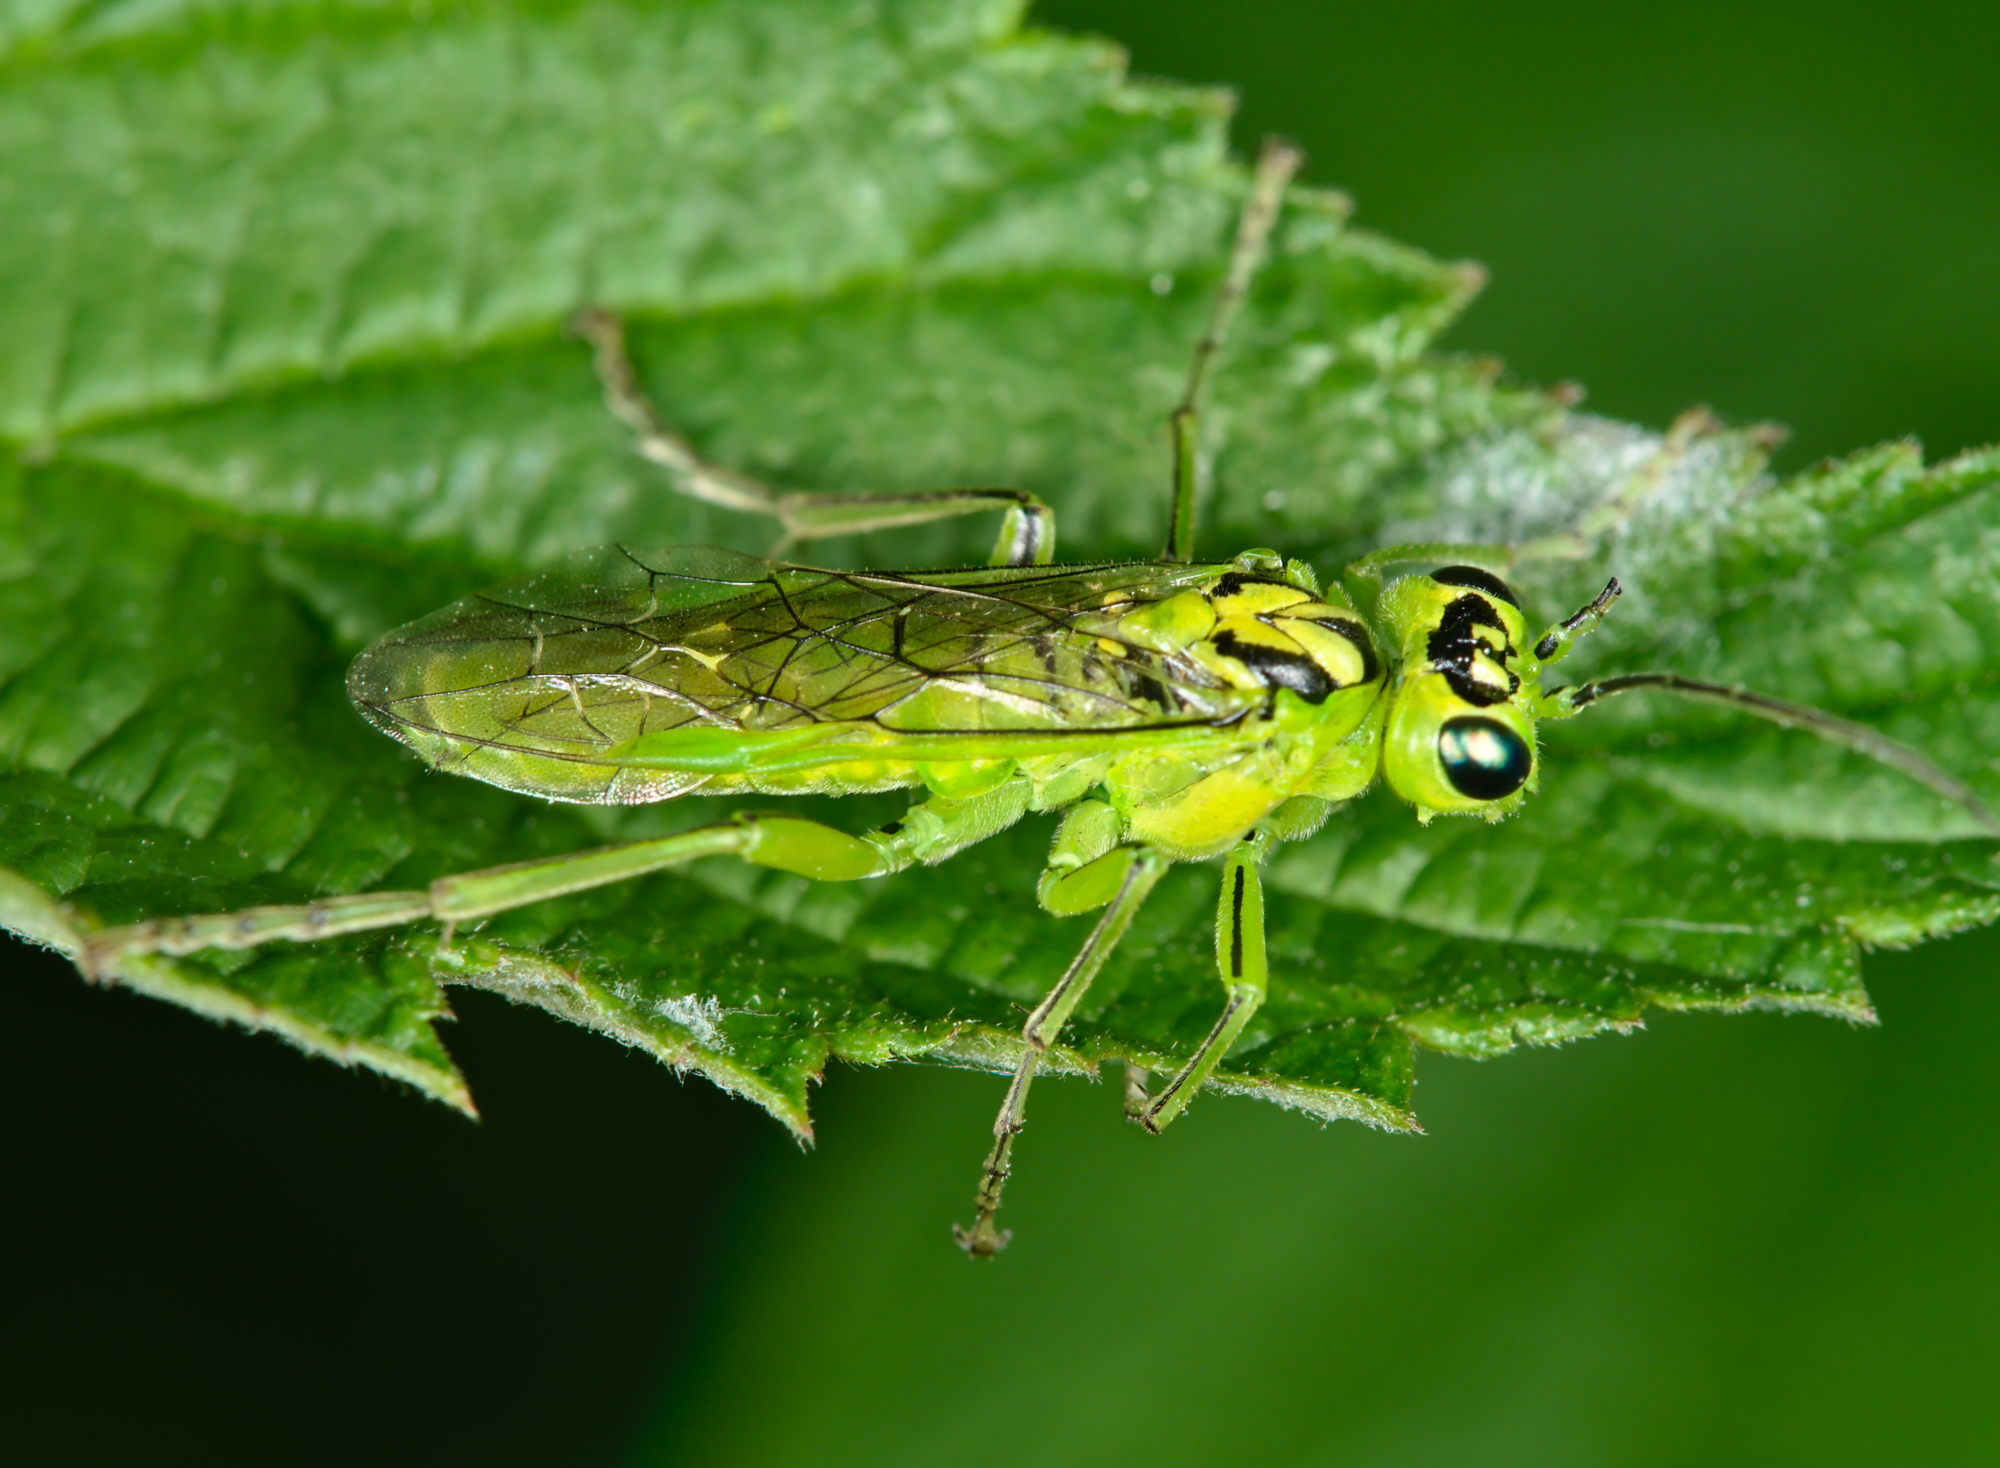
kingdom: Animalia
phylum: Arthropoda
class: Insecta
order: Hymenoptera
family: Tenthredinidae
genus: Rhogogaster
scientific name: Rhogogaster chlorosoma
